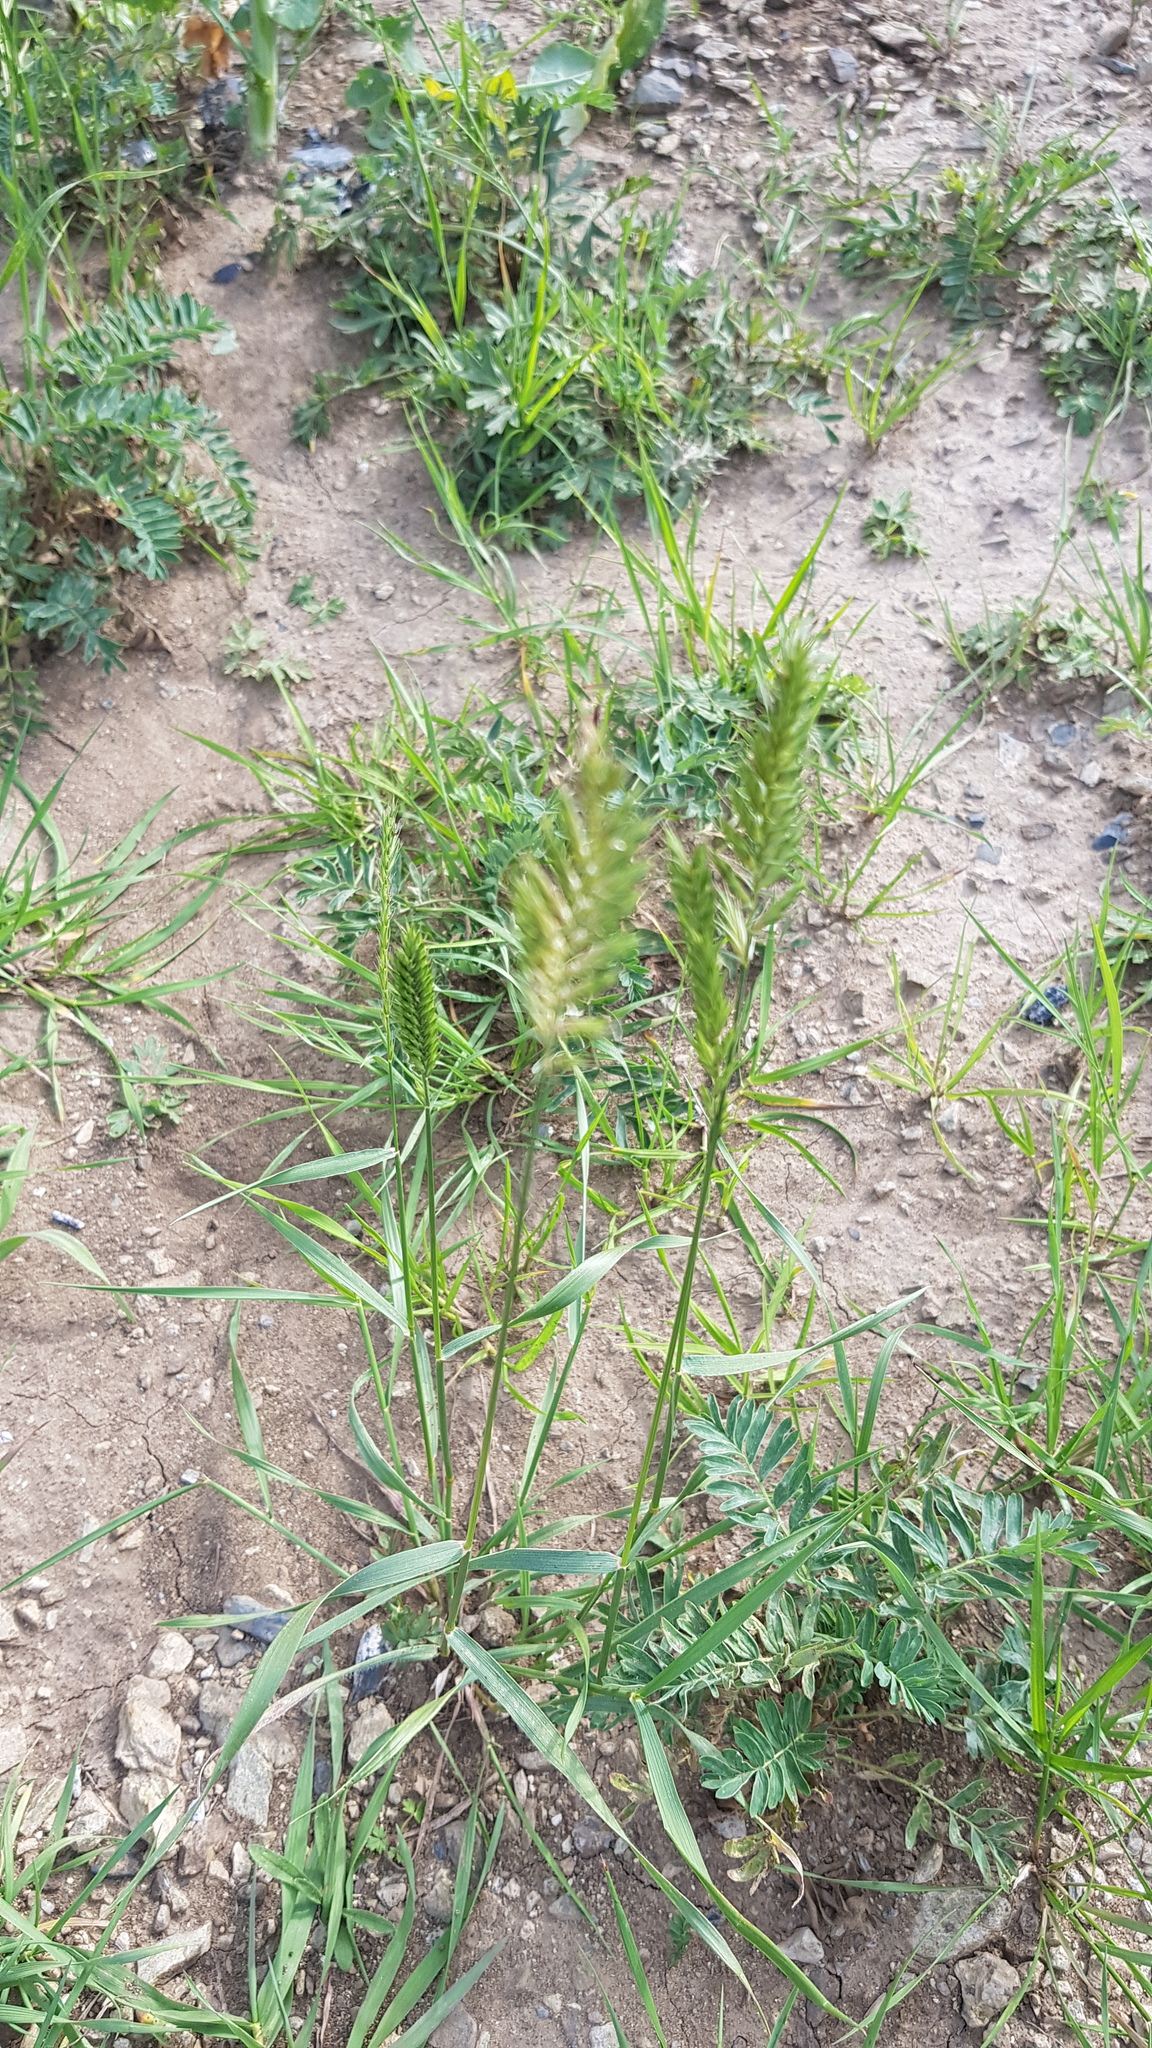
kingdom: Plantae
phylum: Tracheophyta
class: Liliopsida
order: Poales
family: Poaceae
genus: Agropyron
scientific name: Agropyron cristatum
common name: Crested wheatgrass
